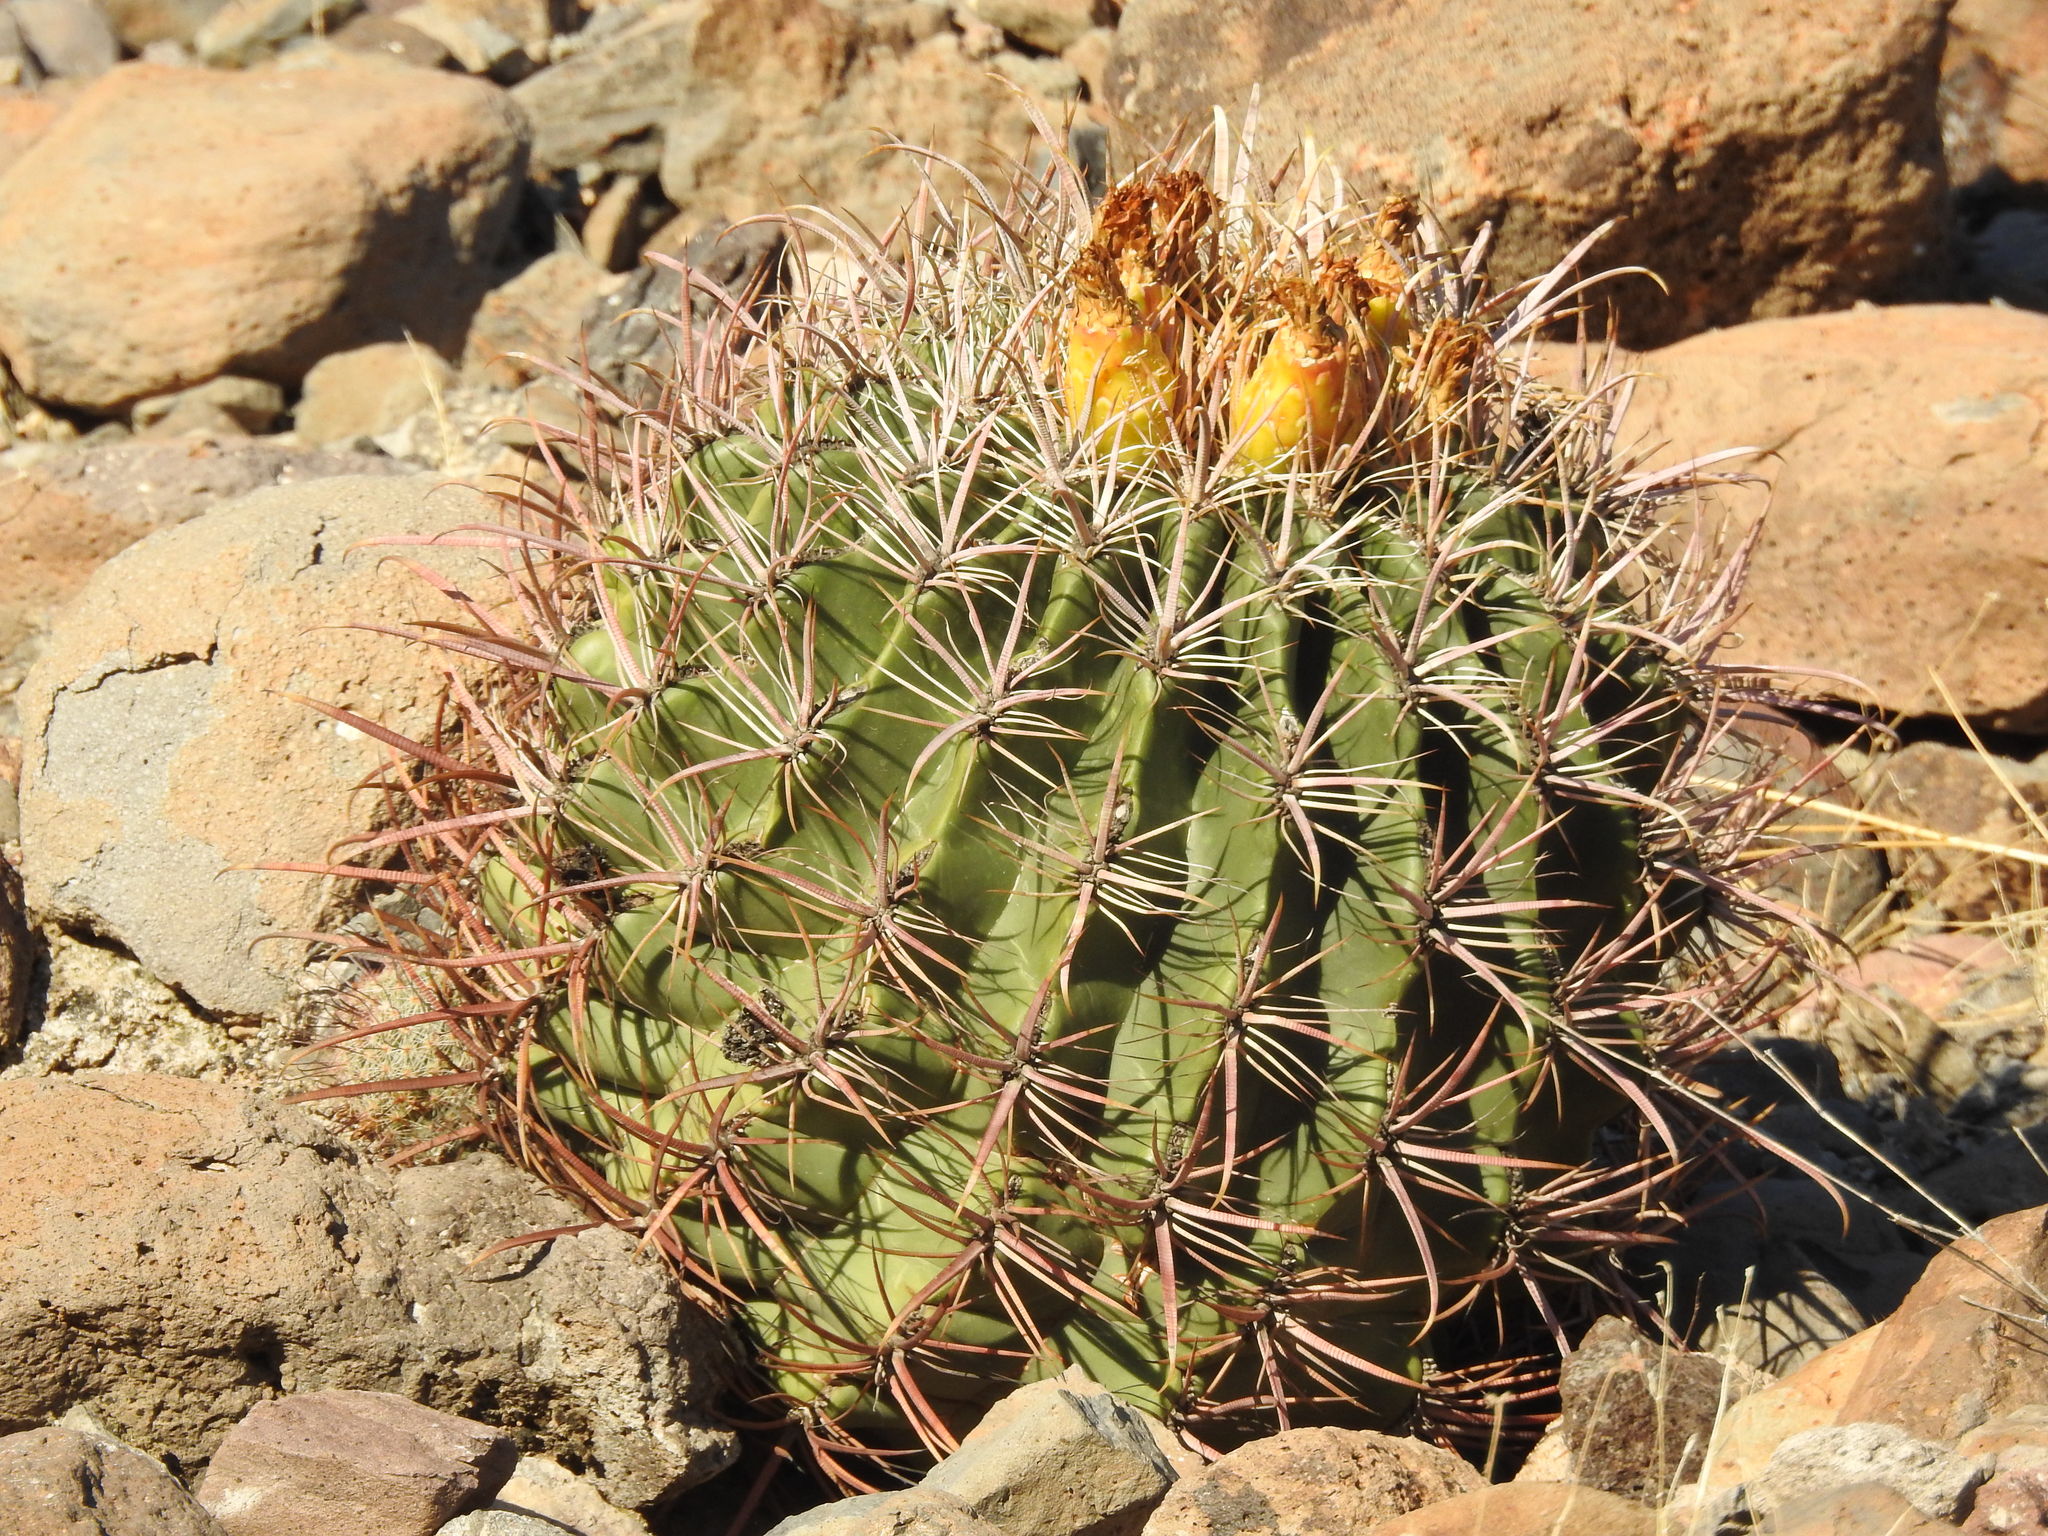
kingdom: Plantae
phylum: Tracheophyta
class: Magnoliopsida
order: Caryophyllales
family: Cactaceae
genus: Ferocactus
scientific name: Ferocactus cylindraceus
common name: California barrel cactus
